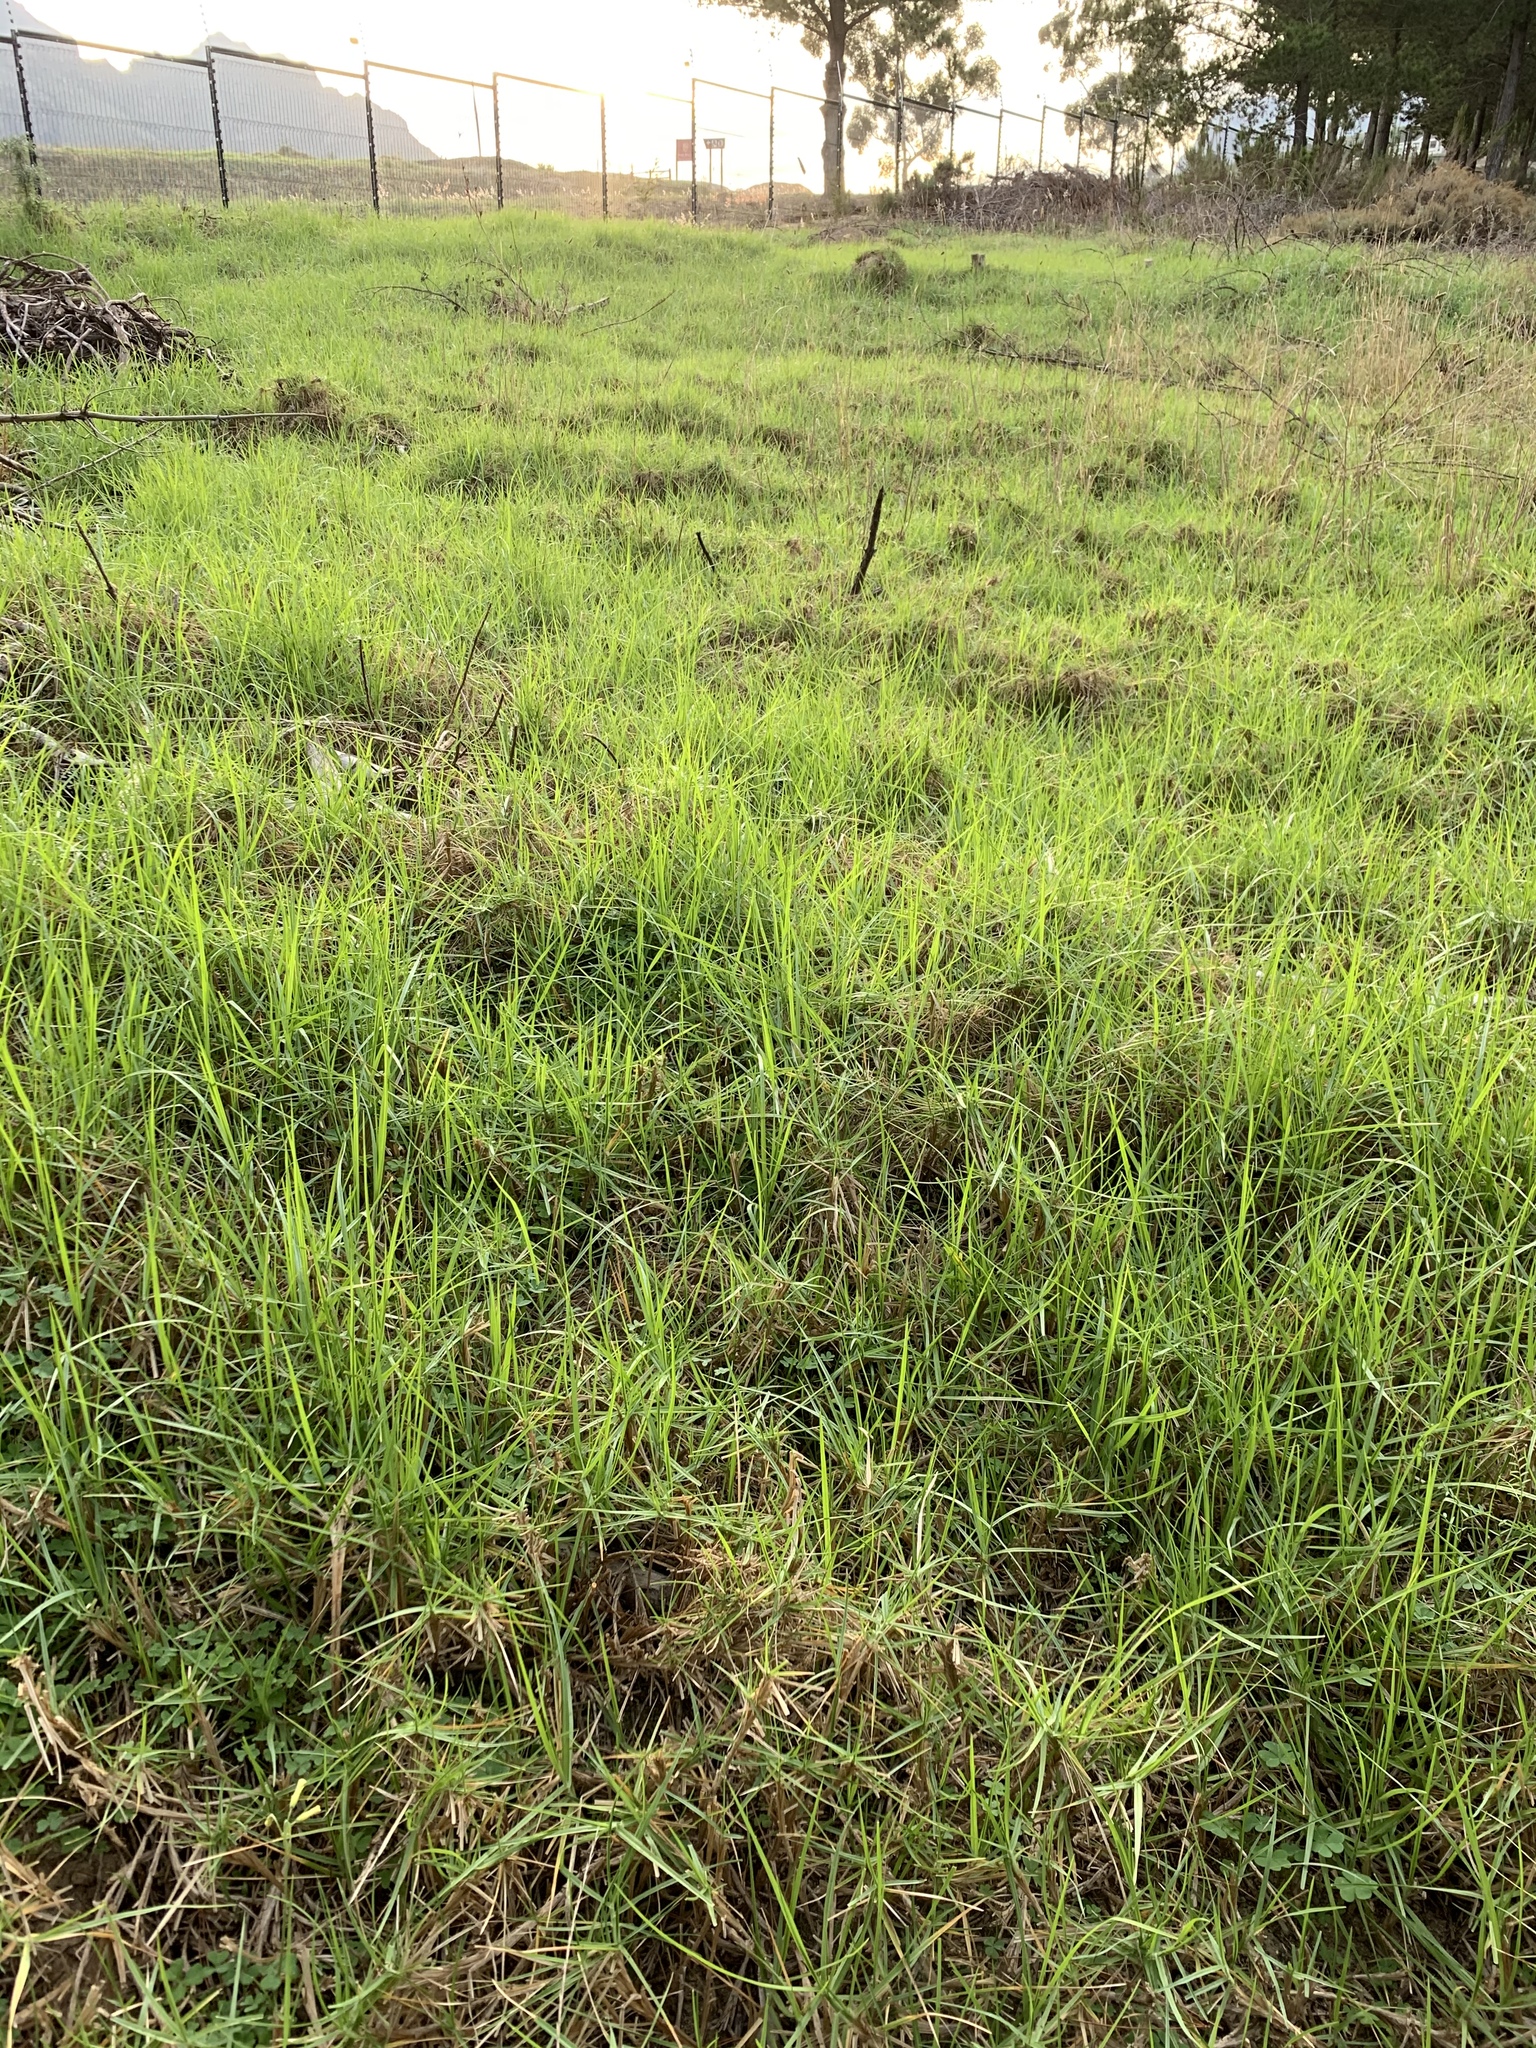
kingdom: Plantae
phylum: Tracheophyta
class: Liliopsida
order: Poales
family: Poaceae
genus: Cenchrus
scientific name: Cenchrus clandestinus
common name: Kikuyugrass
